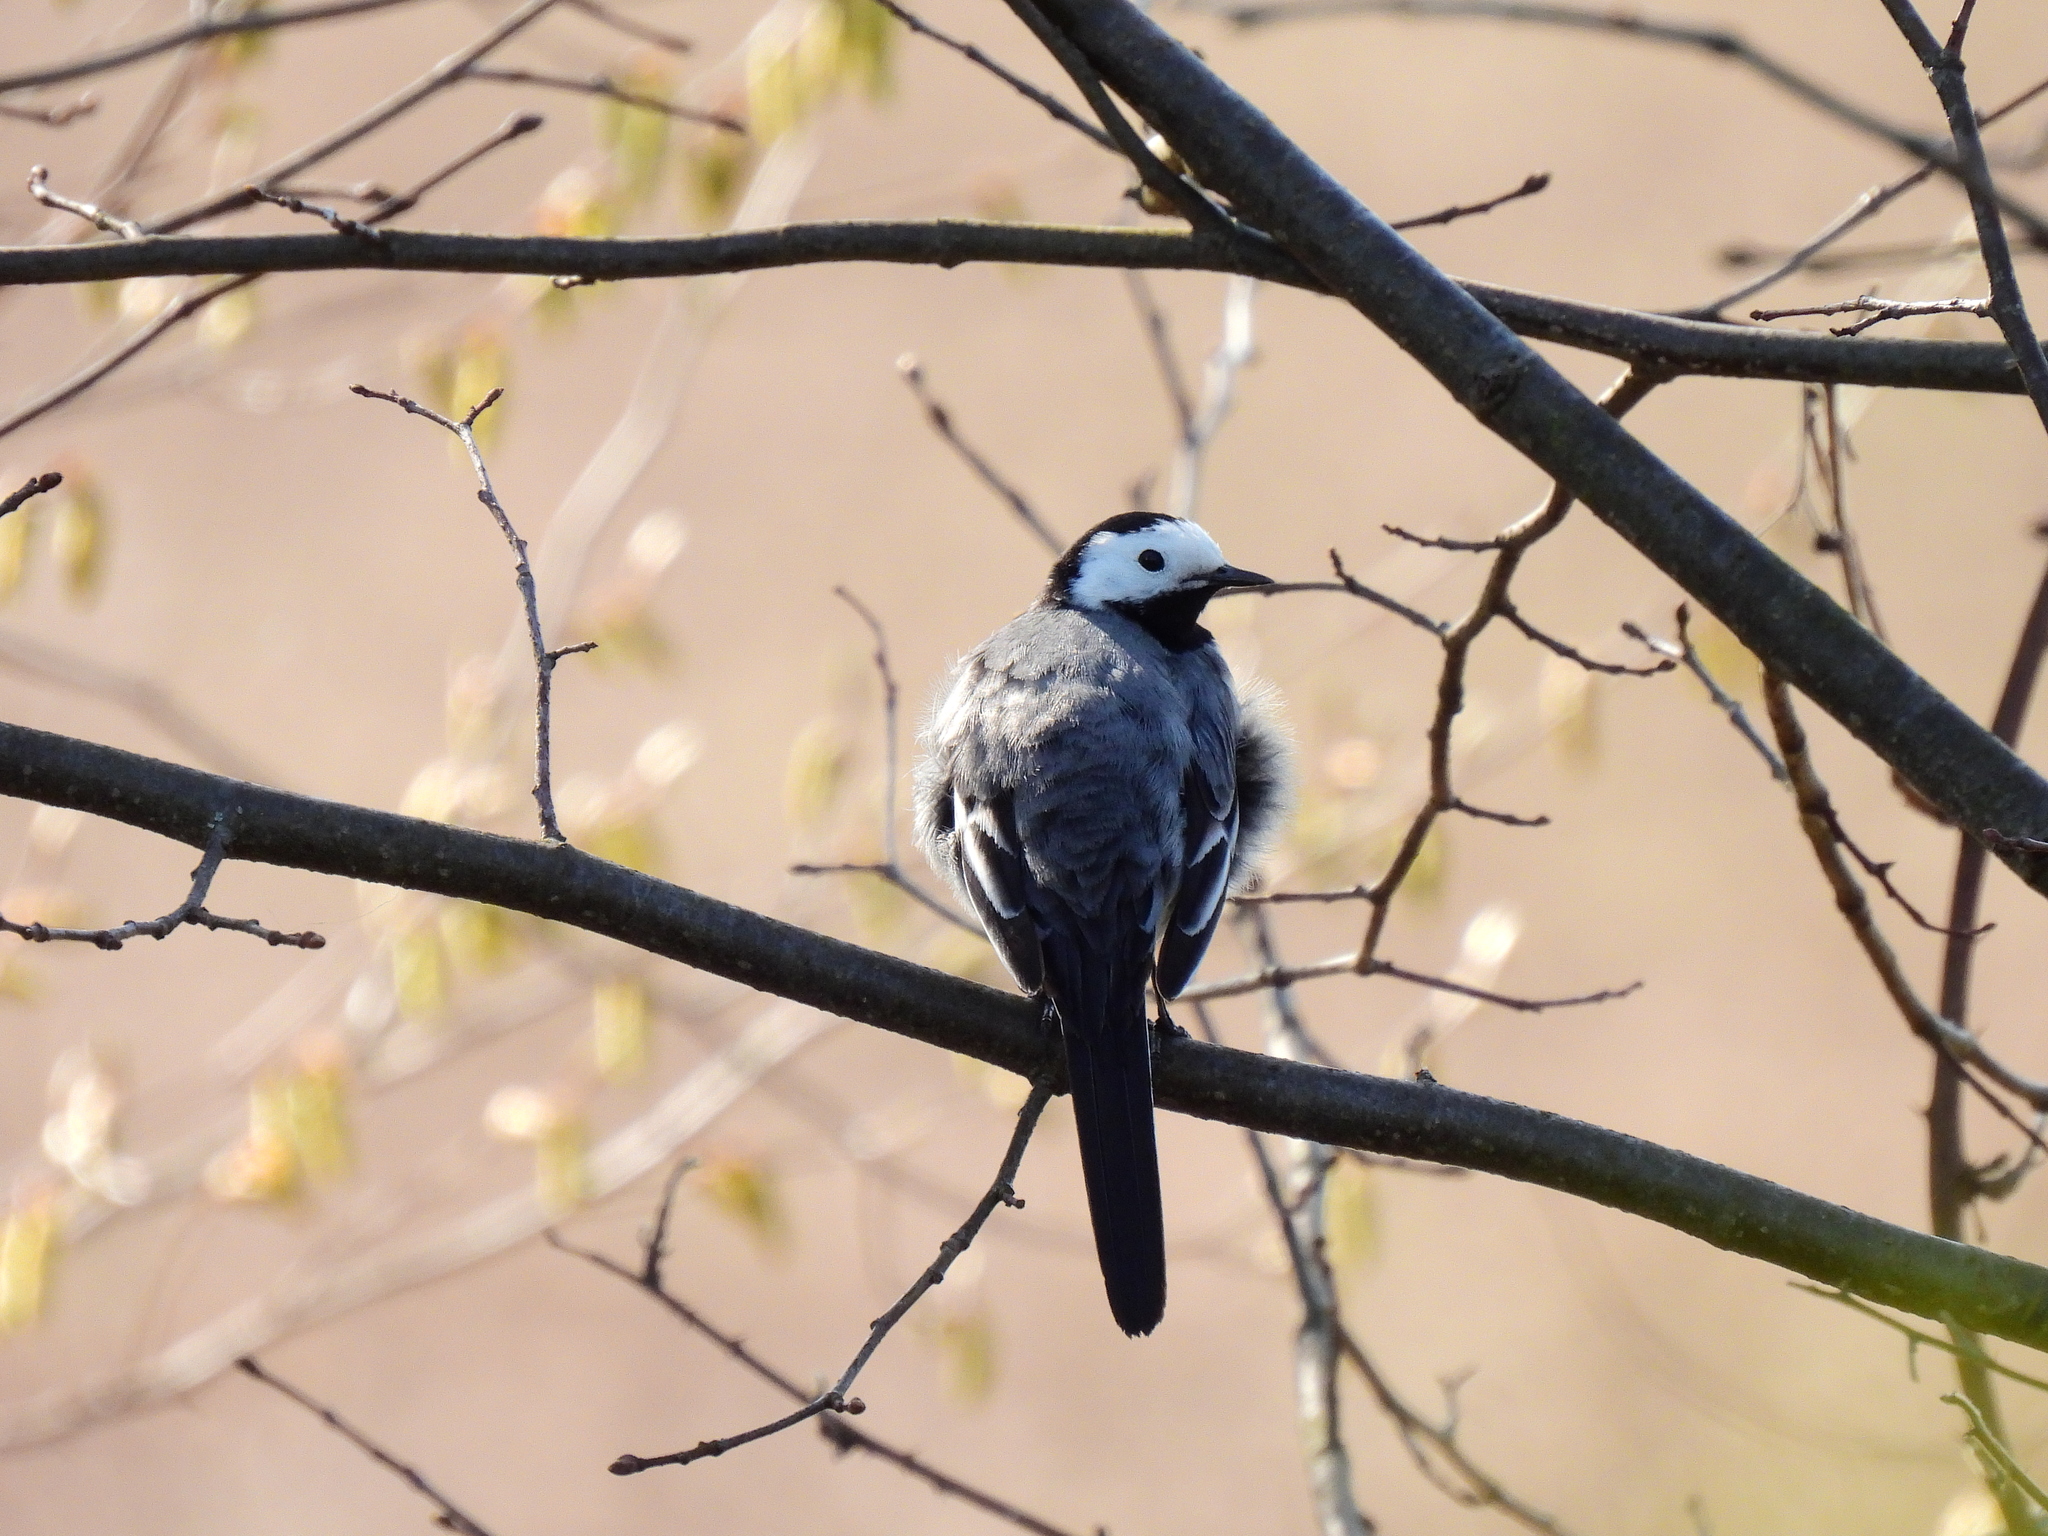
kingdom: Animalia
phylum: Chordata
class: Aves
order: Passeriformes
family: Motacillidae
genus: Motacilla
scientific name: Motacilla alba
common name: White wagtail
